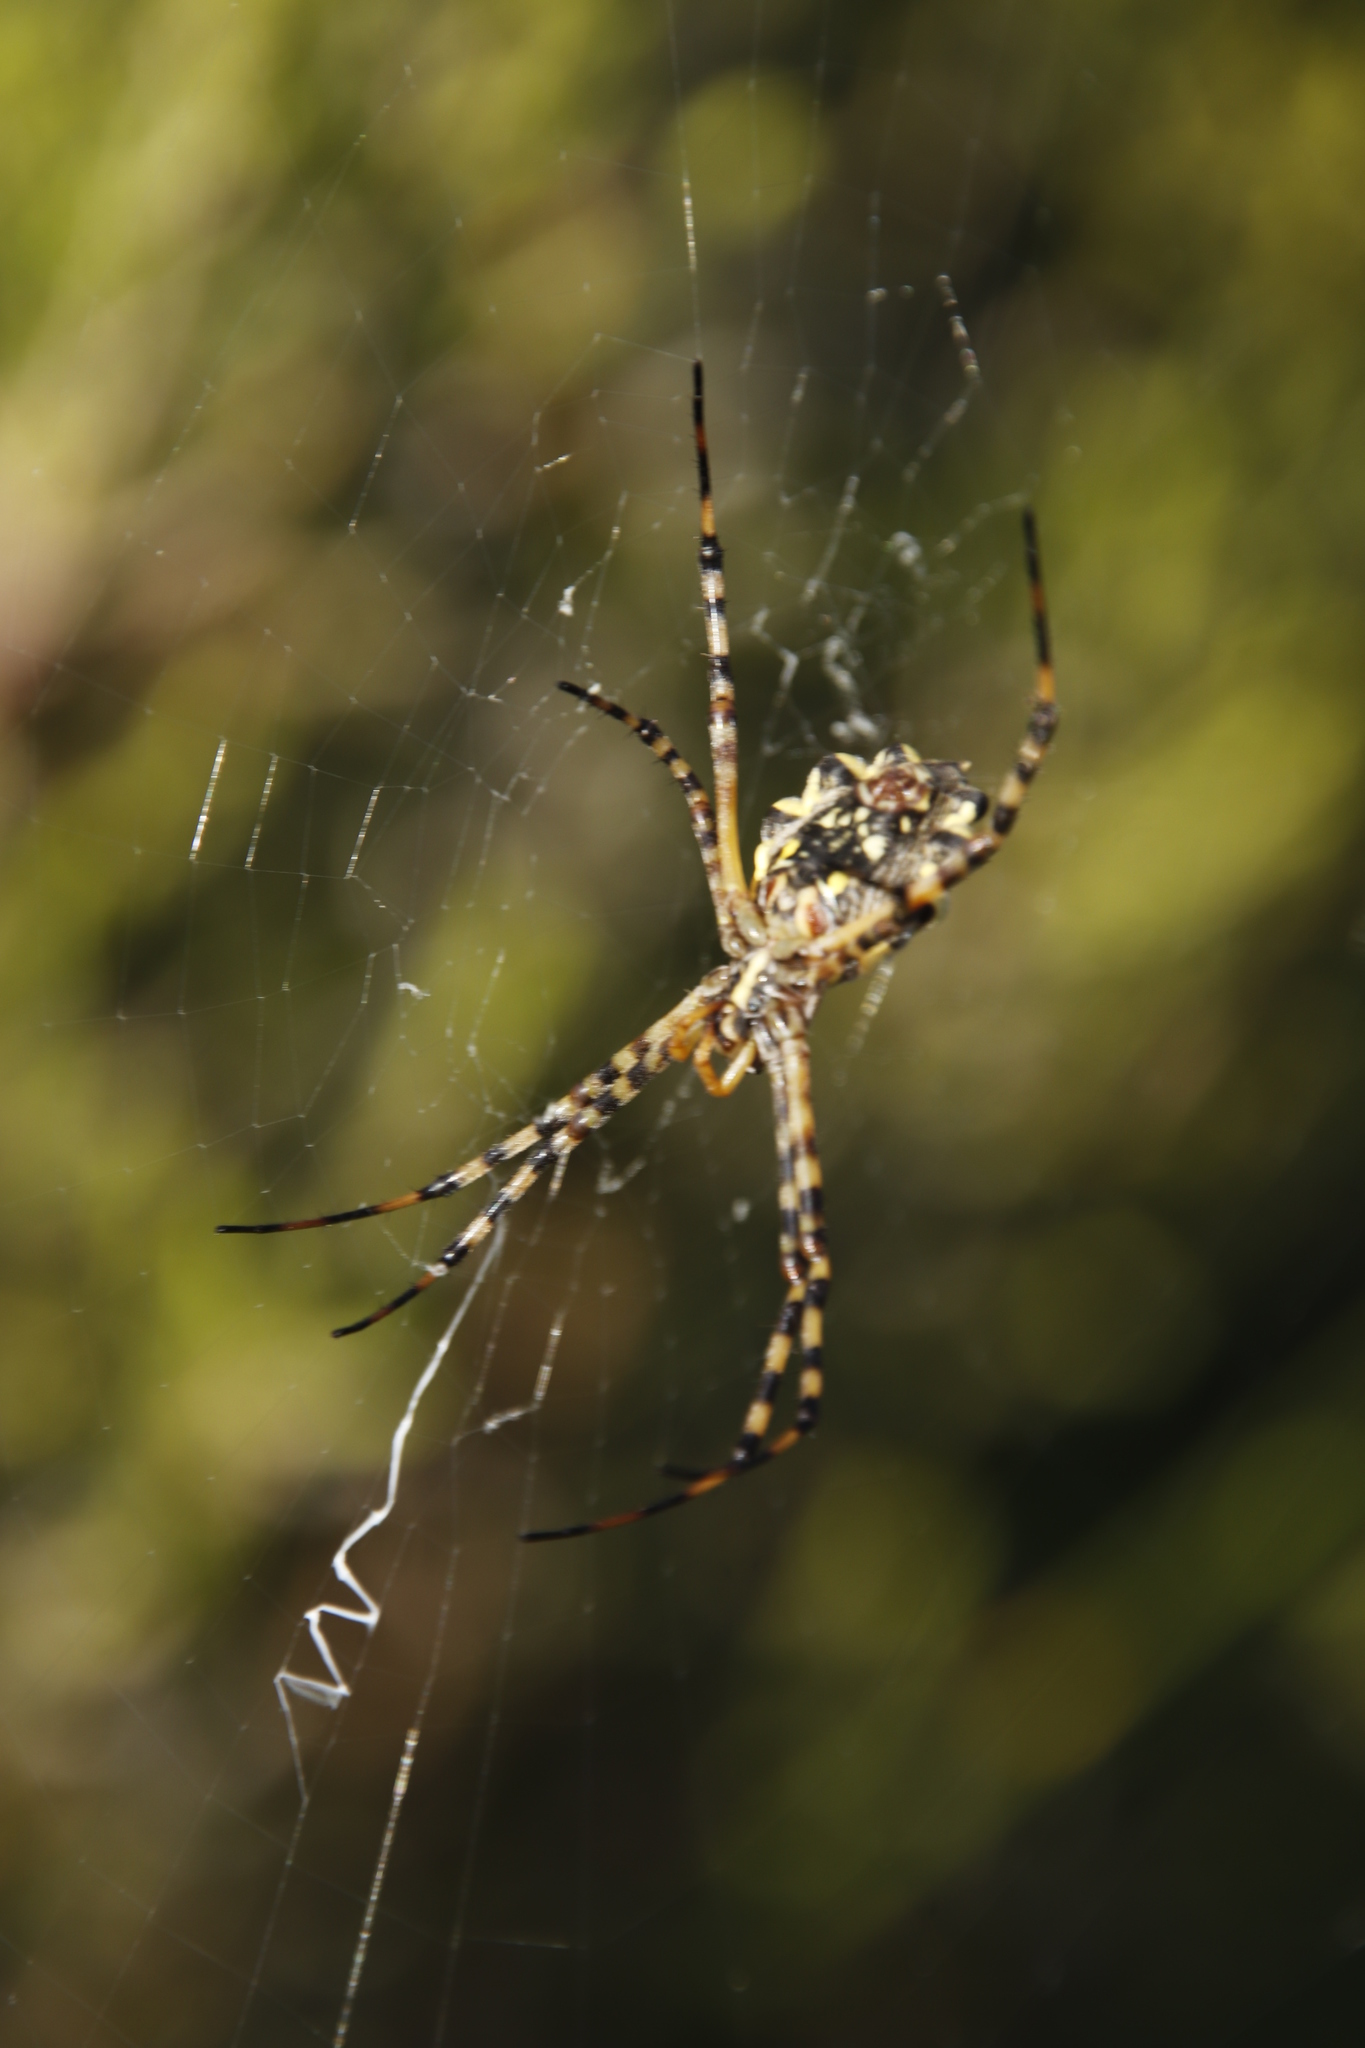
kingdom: Animalia
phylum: Arthropoda
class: Arachnida
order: Araneae
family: Araneidae
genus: Argiope
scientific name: Argiope australis
